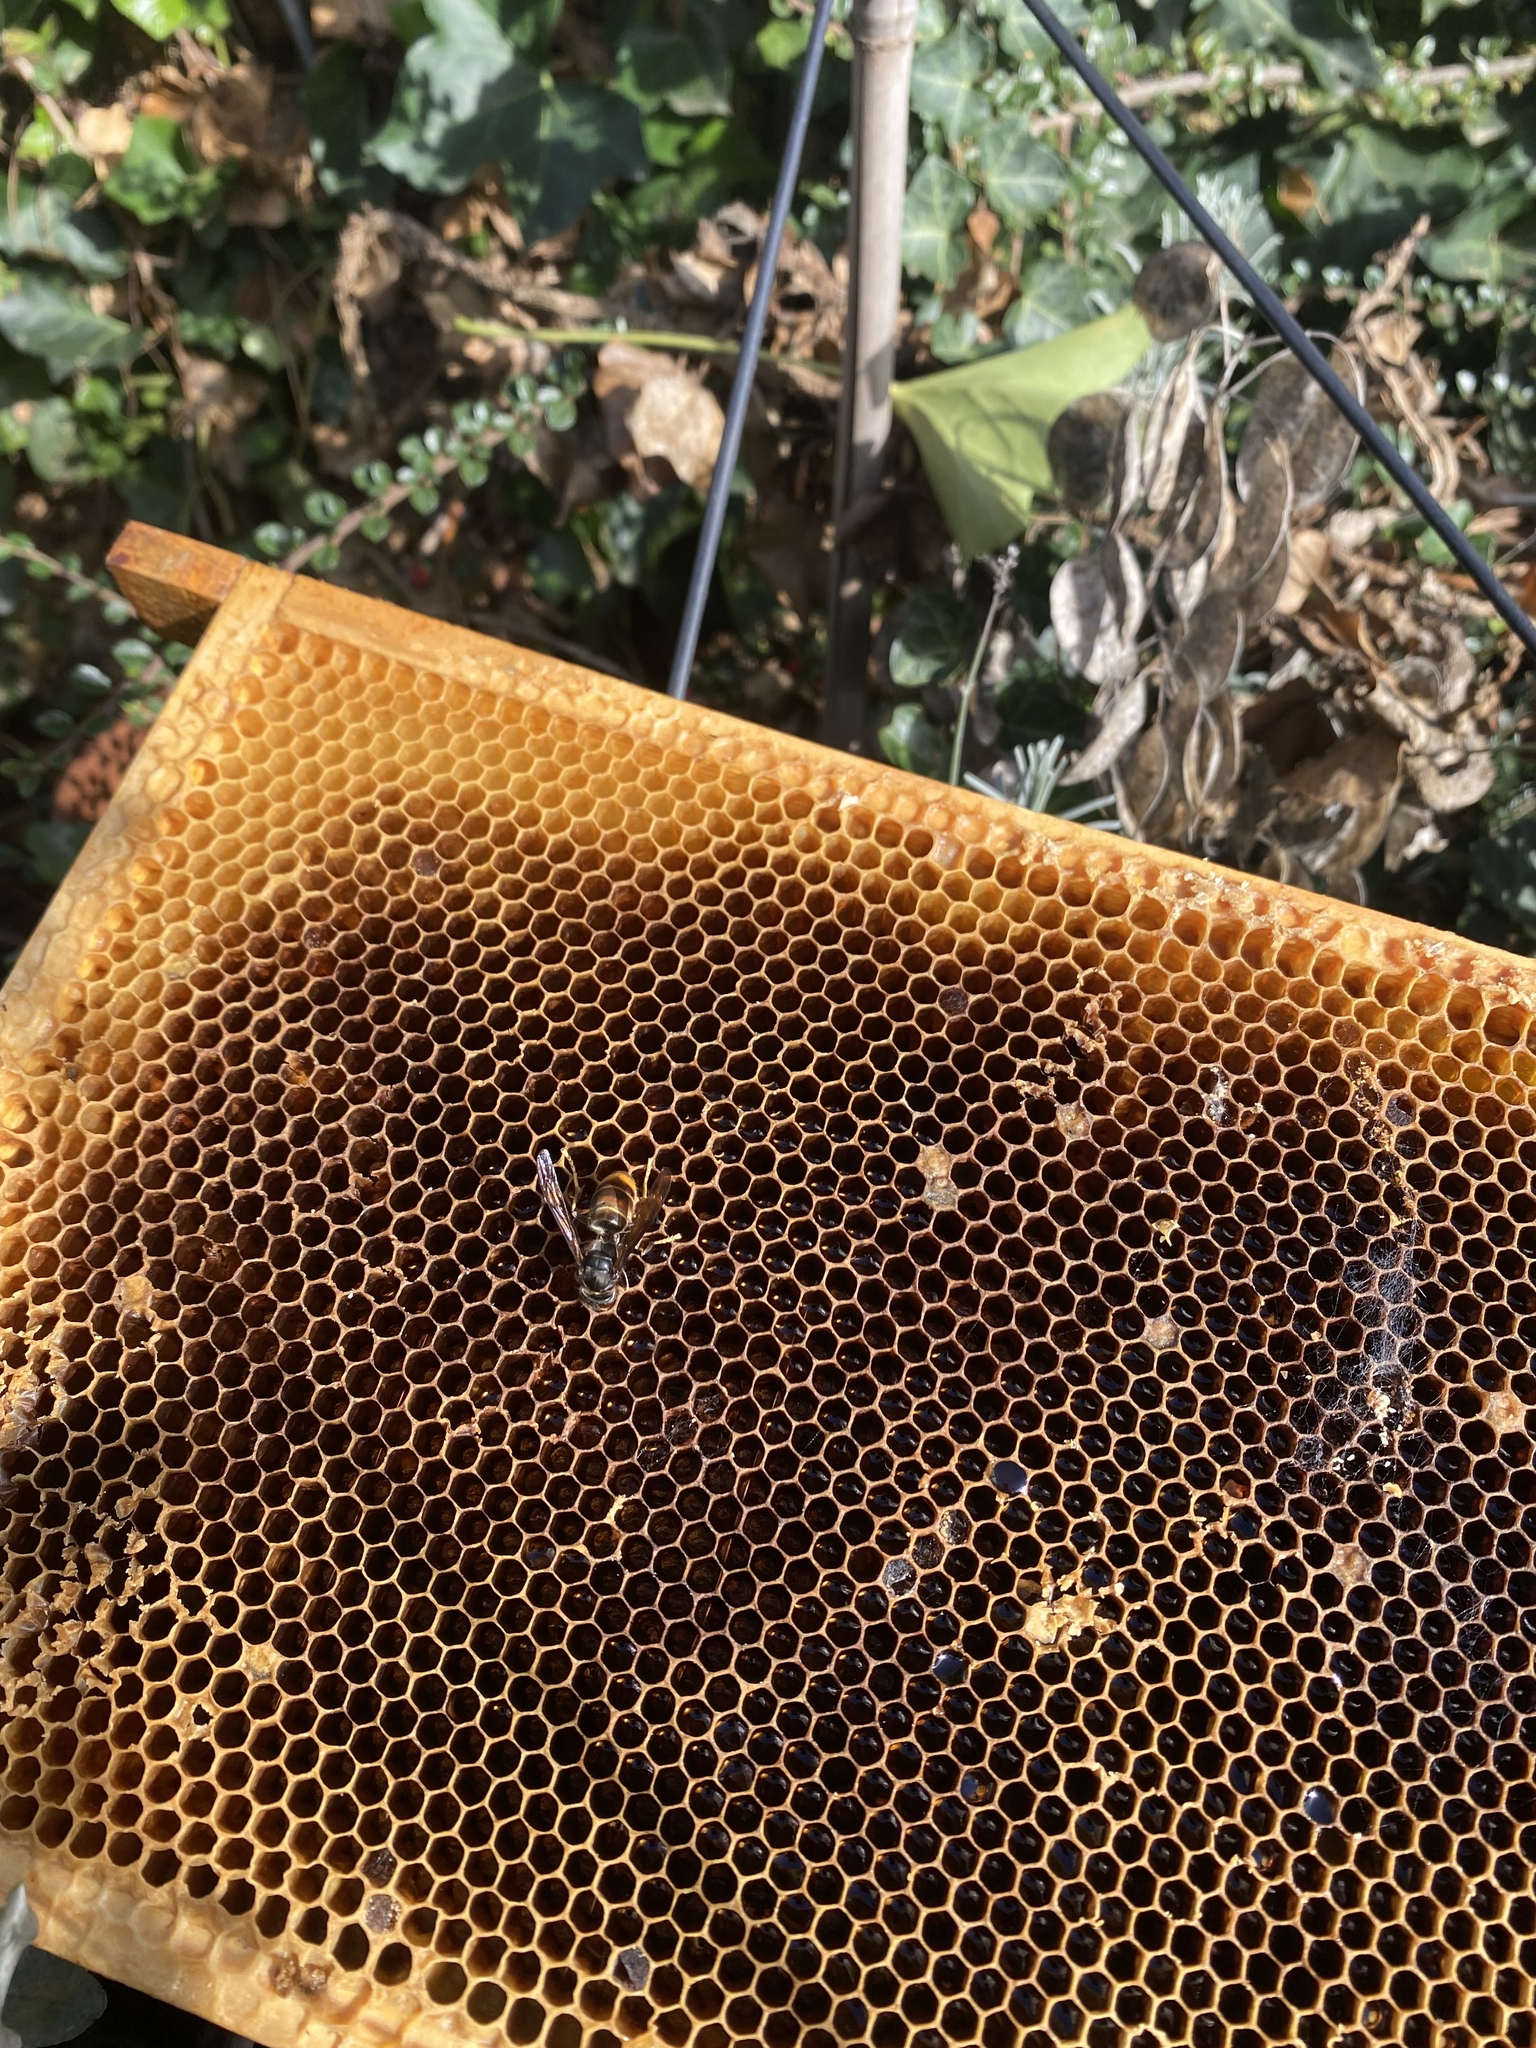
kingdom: Animalia
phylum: Arthropoda
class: Insecta
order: Hymenoptera
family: Vespidae
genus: Vespa
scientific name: Vespa velutina
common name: Asian hornet
